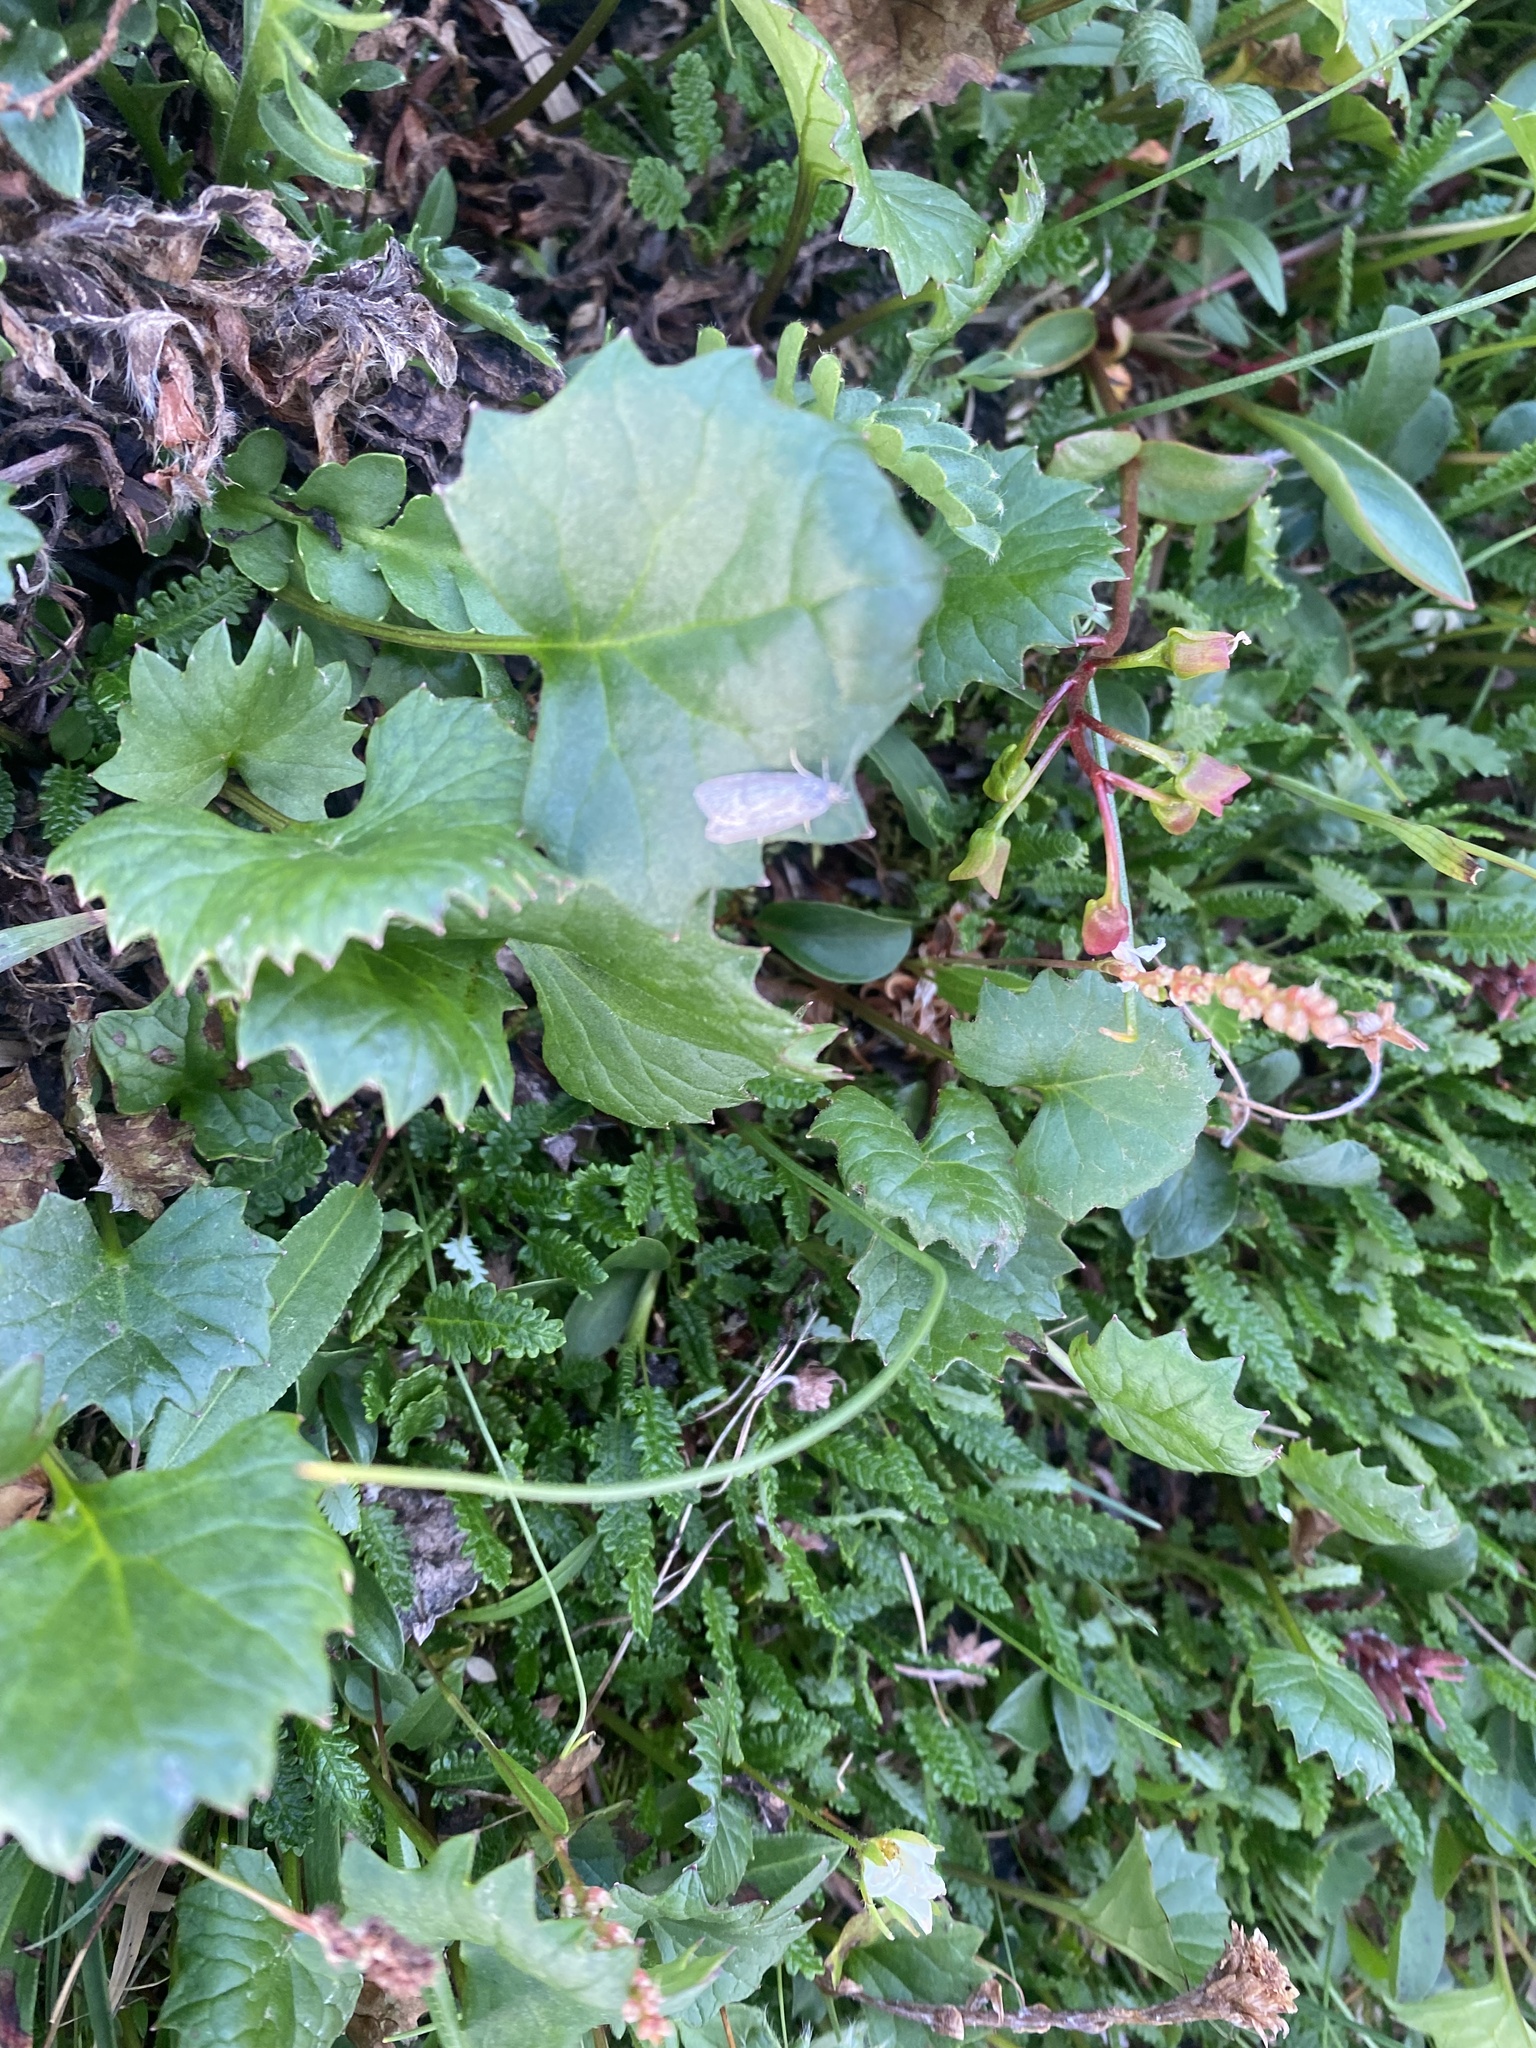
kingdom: Plantae
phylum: Tracheophyta
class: Magnoliopsida
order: Asterales
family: Asteraceae
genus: Endocellion
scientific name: Endocellion glaciale
